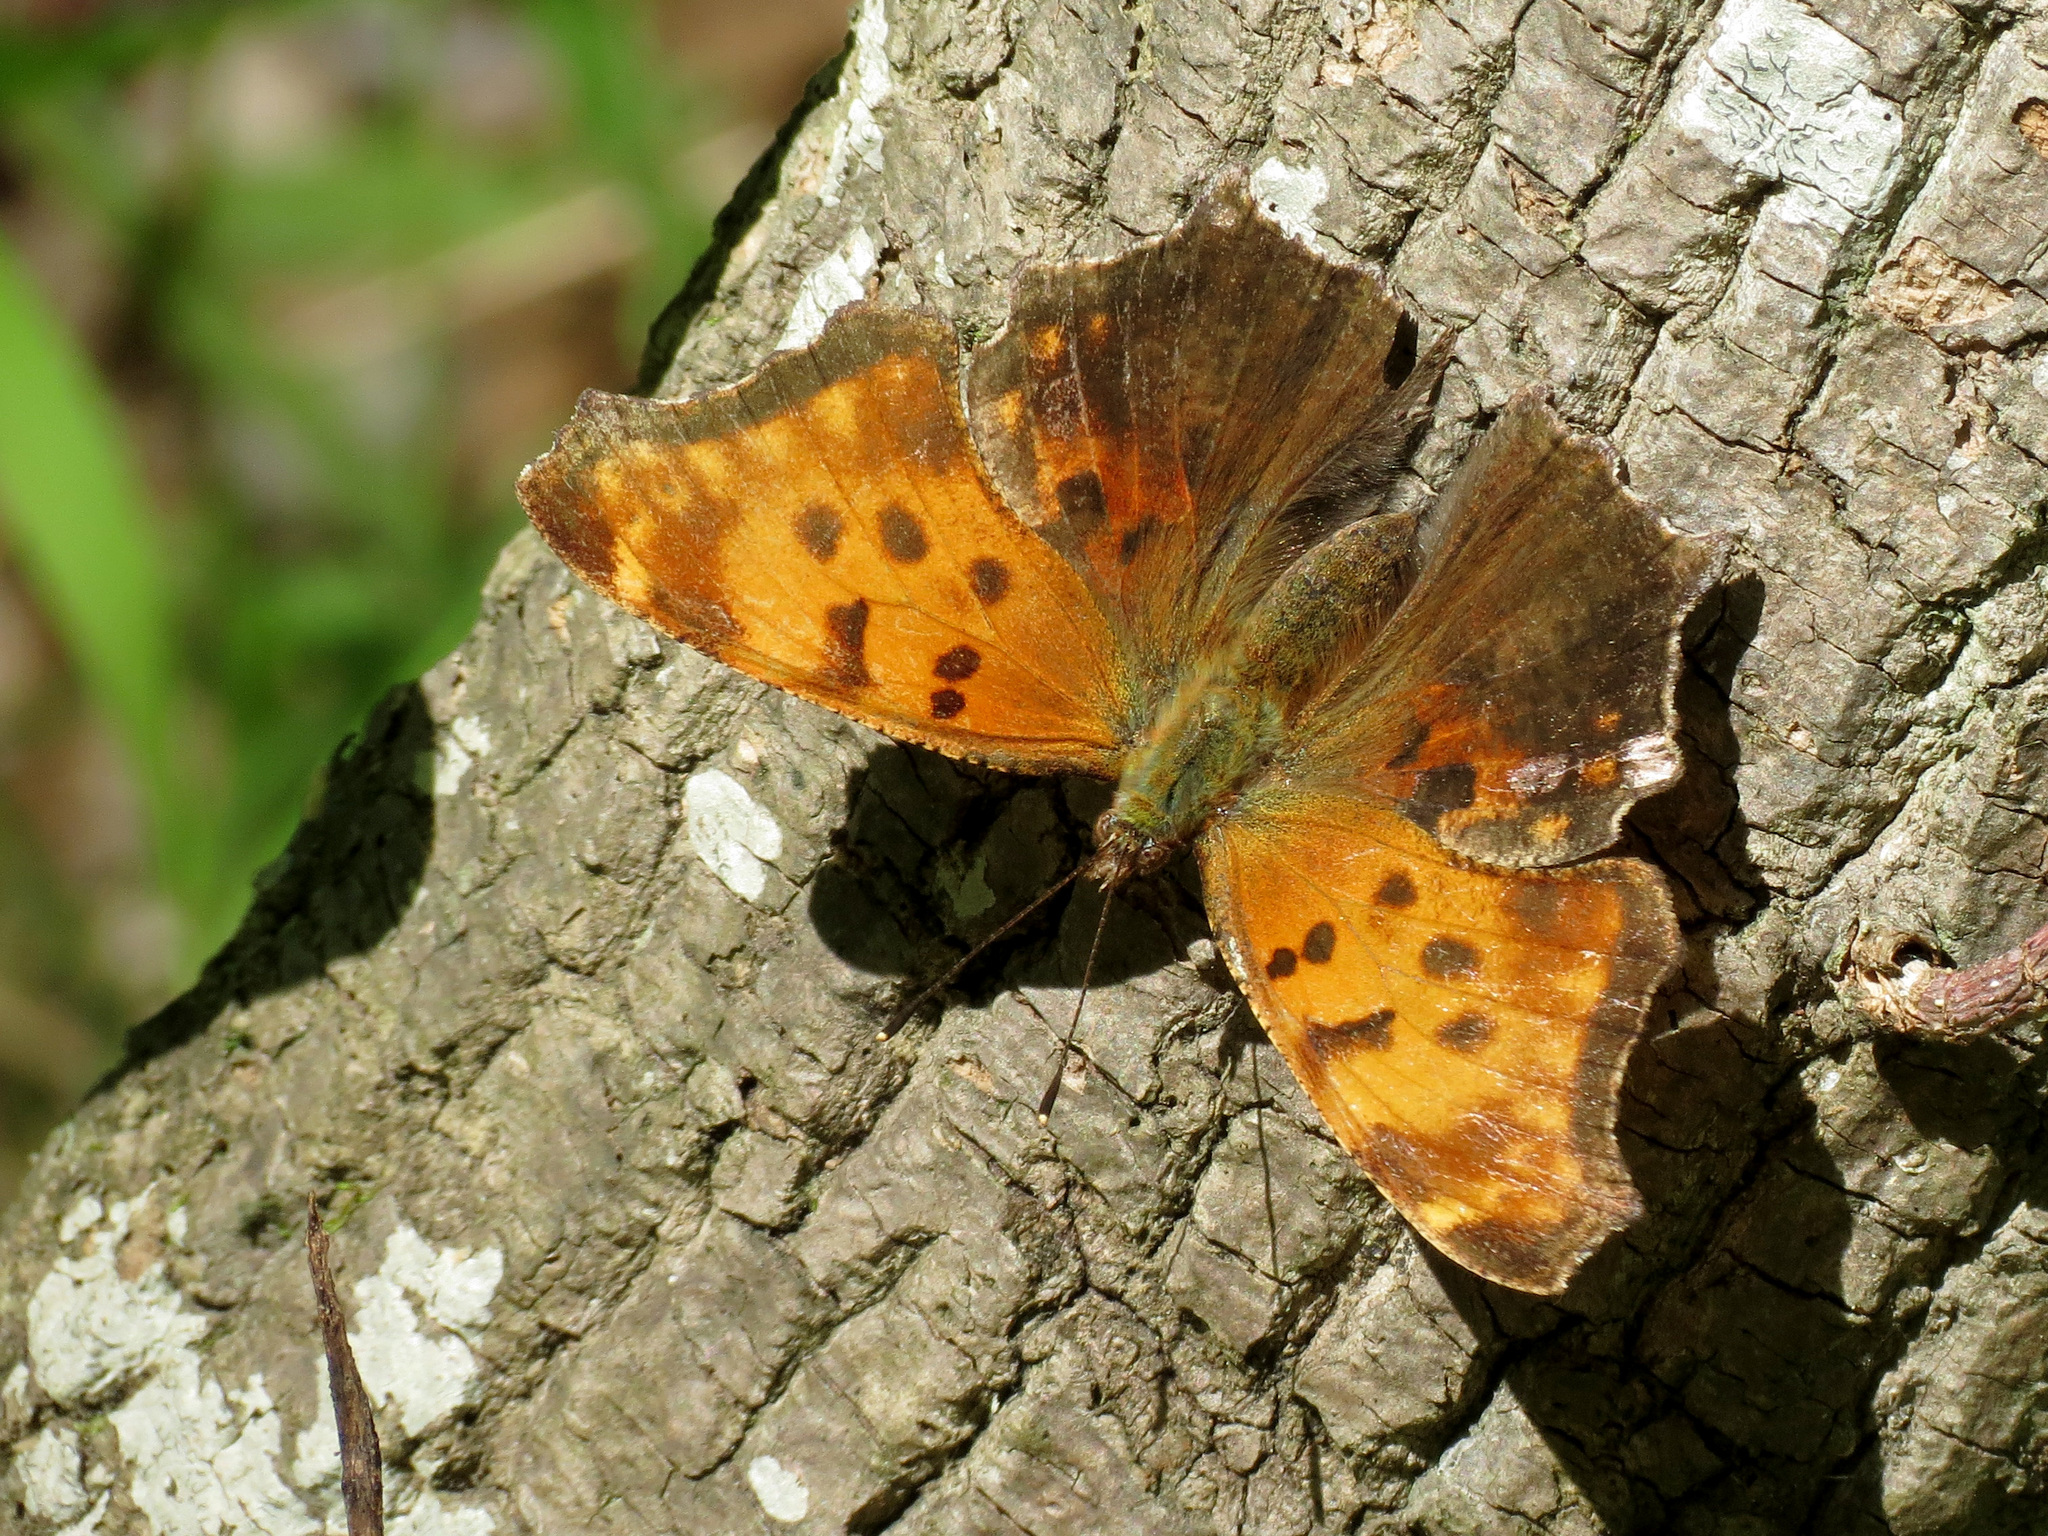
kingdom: Animalia
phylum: Arthropoda
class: Insecta
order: Lepidoptera
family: Nymphalidae
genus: Polygonia
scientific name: Polygonia comma
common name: Eastern comma
